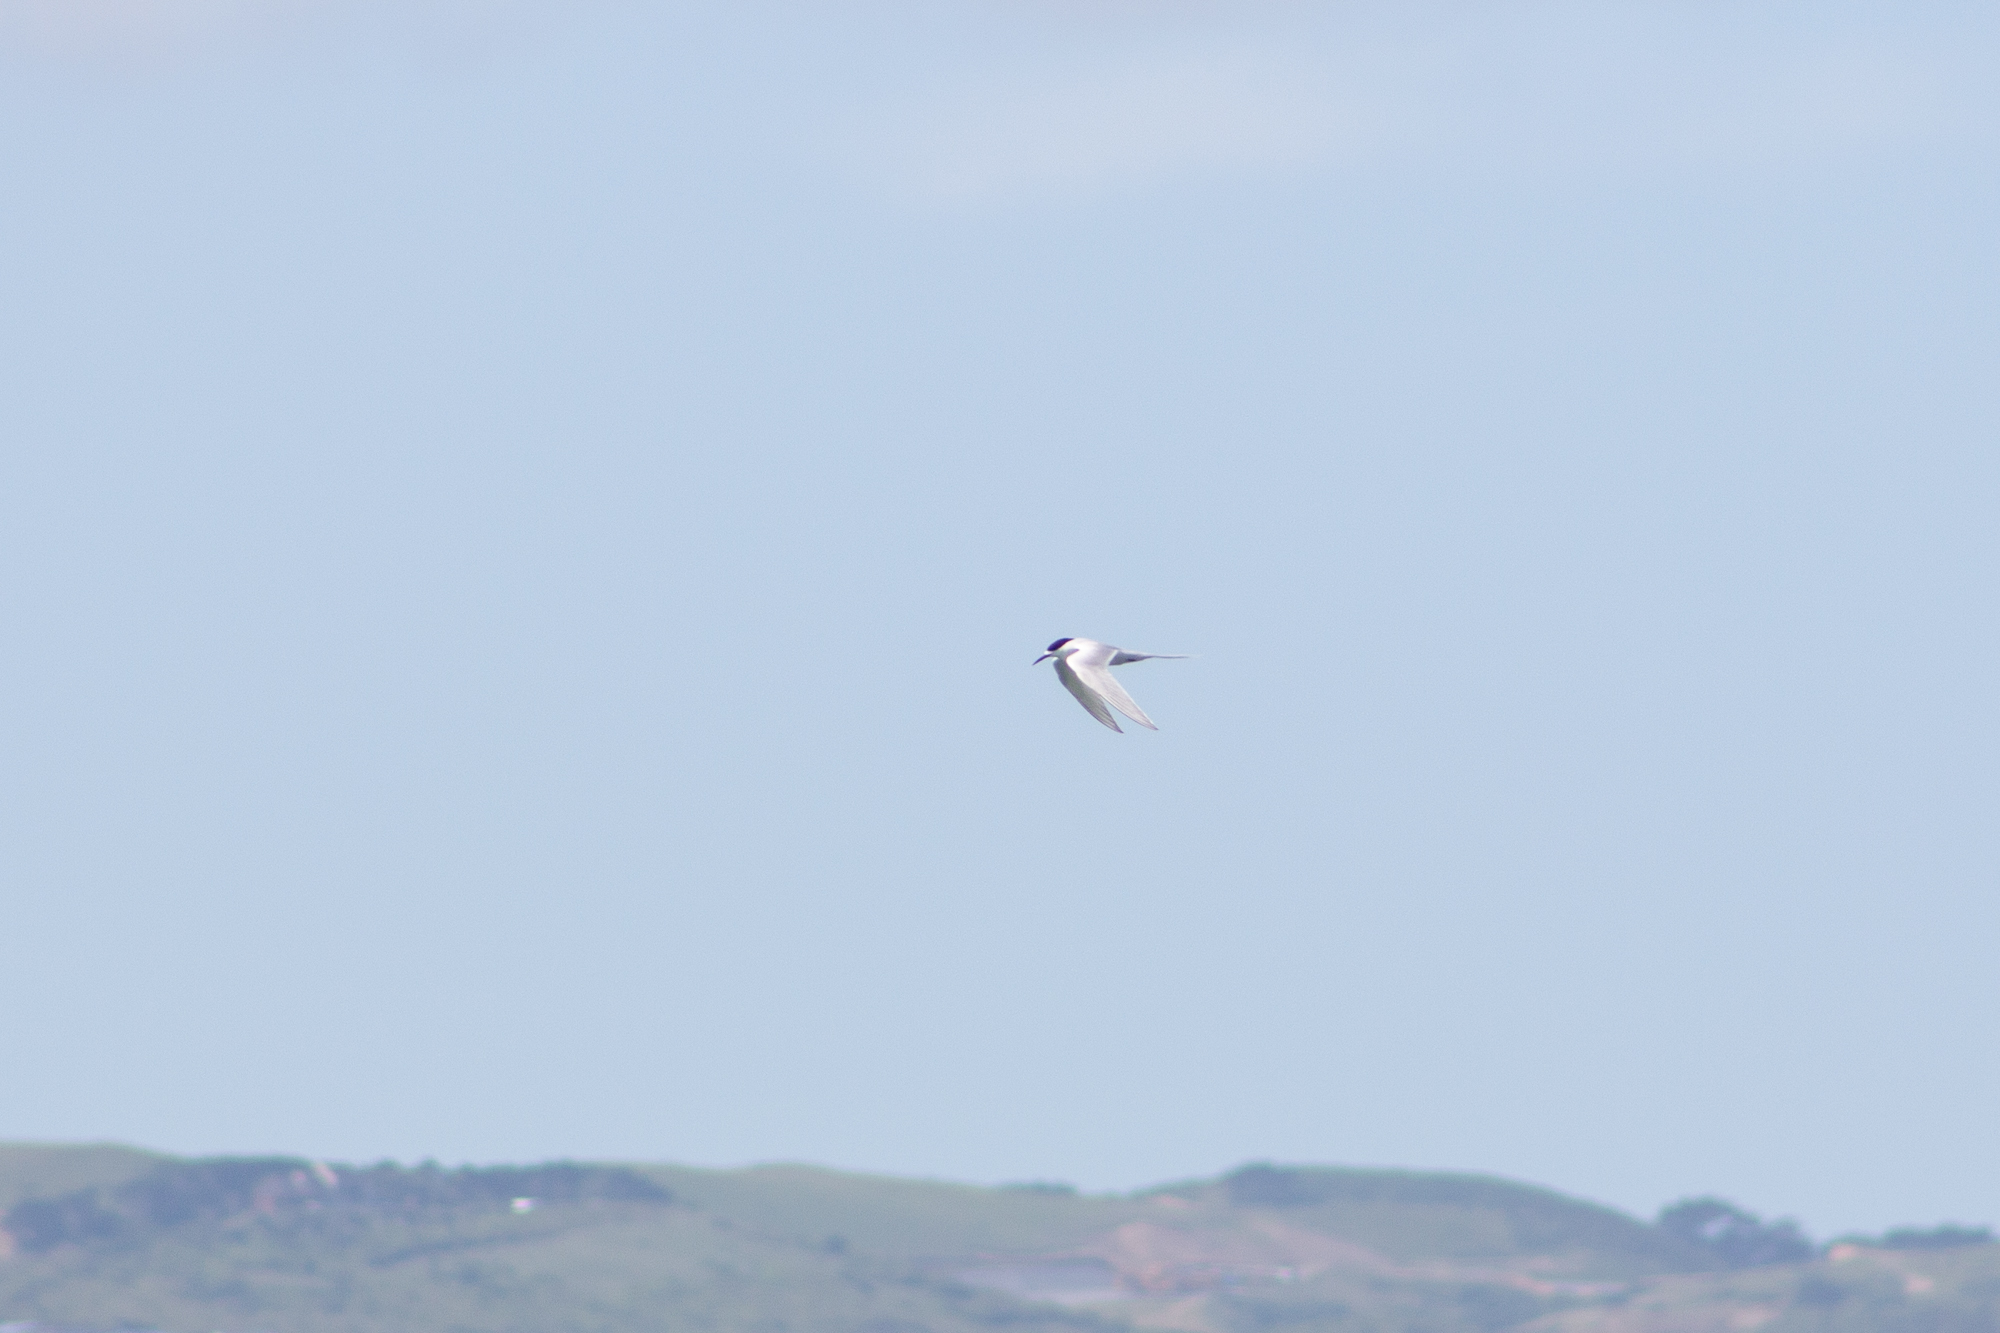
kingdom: Animalia
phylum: Chordata
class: Aves
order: Charadriiformes
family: Laridae
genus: Sterna
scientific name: Sterna striata
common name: White-fronted tern
